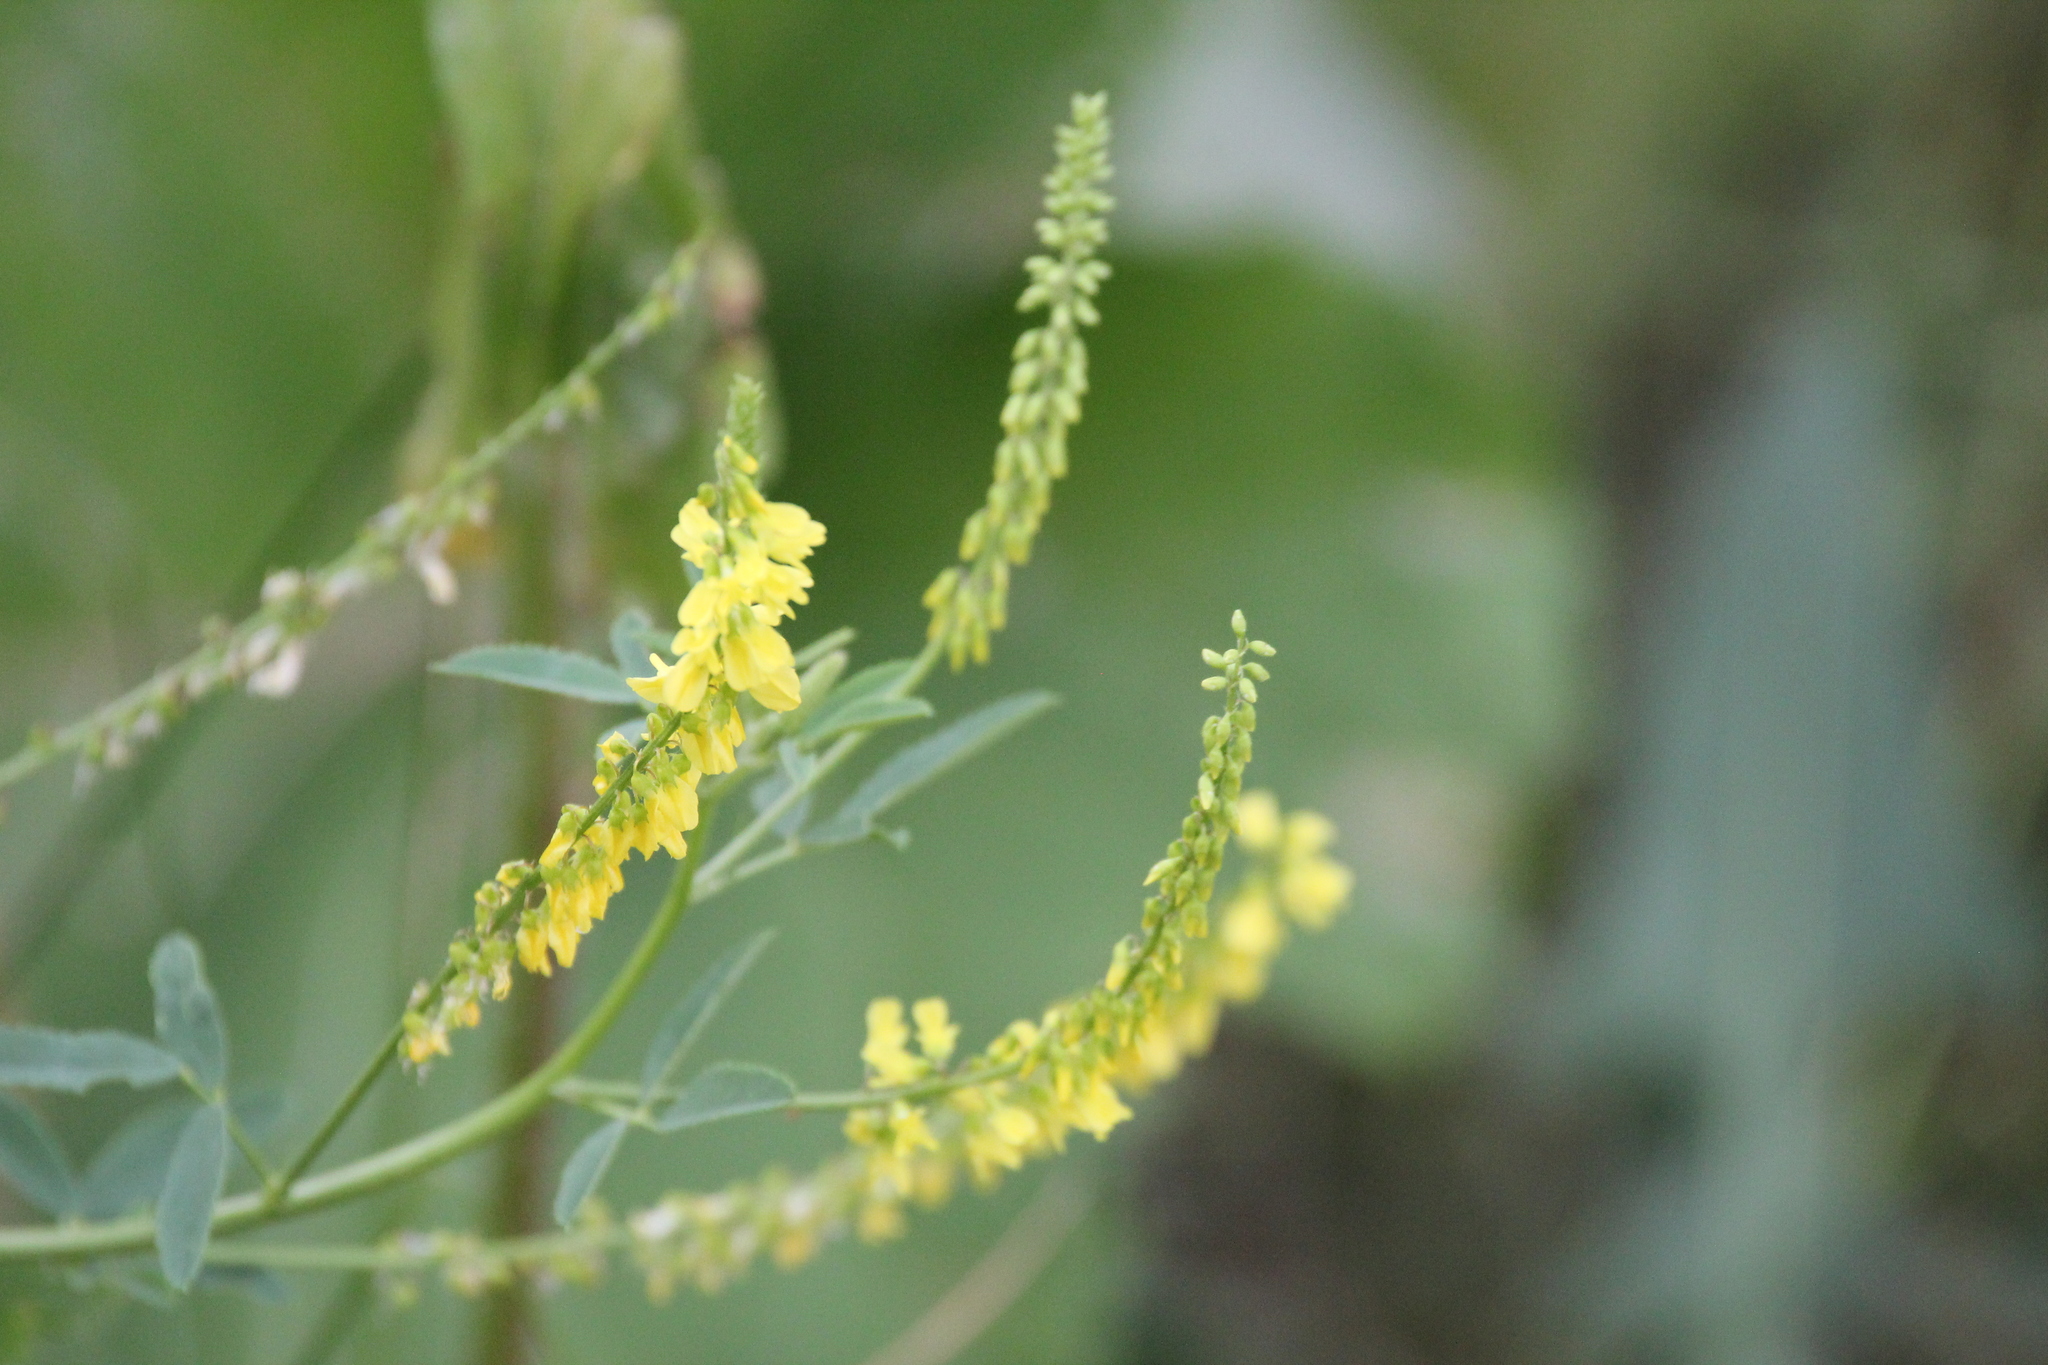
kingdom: Plantae
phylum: Tracheophyta
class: Magnoliopsida
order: Fabales
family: Fabaceae
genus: Melilotus
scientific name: Melilotus officinalis
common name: Sweetclover
